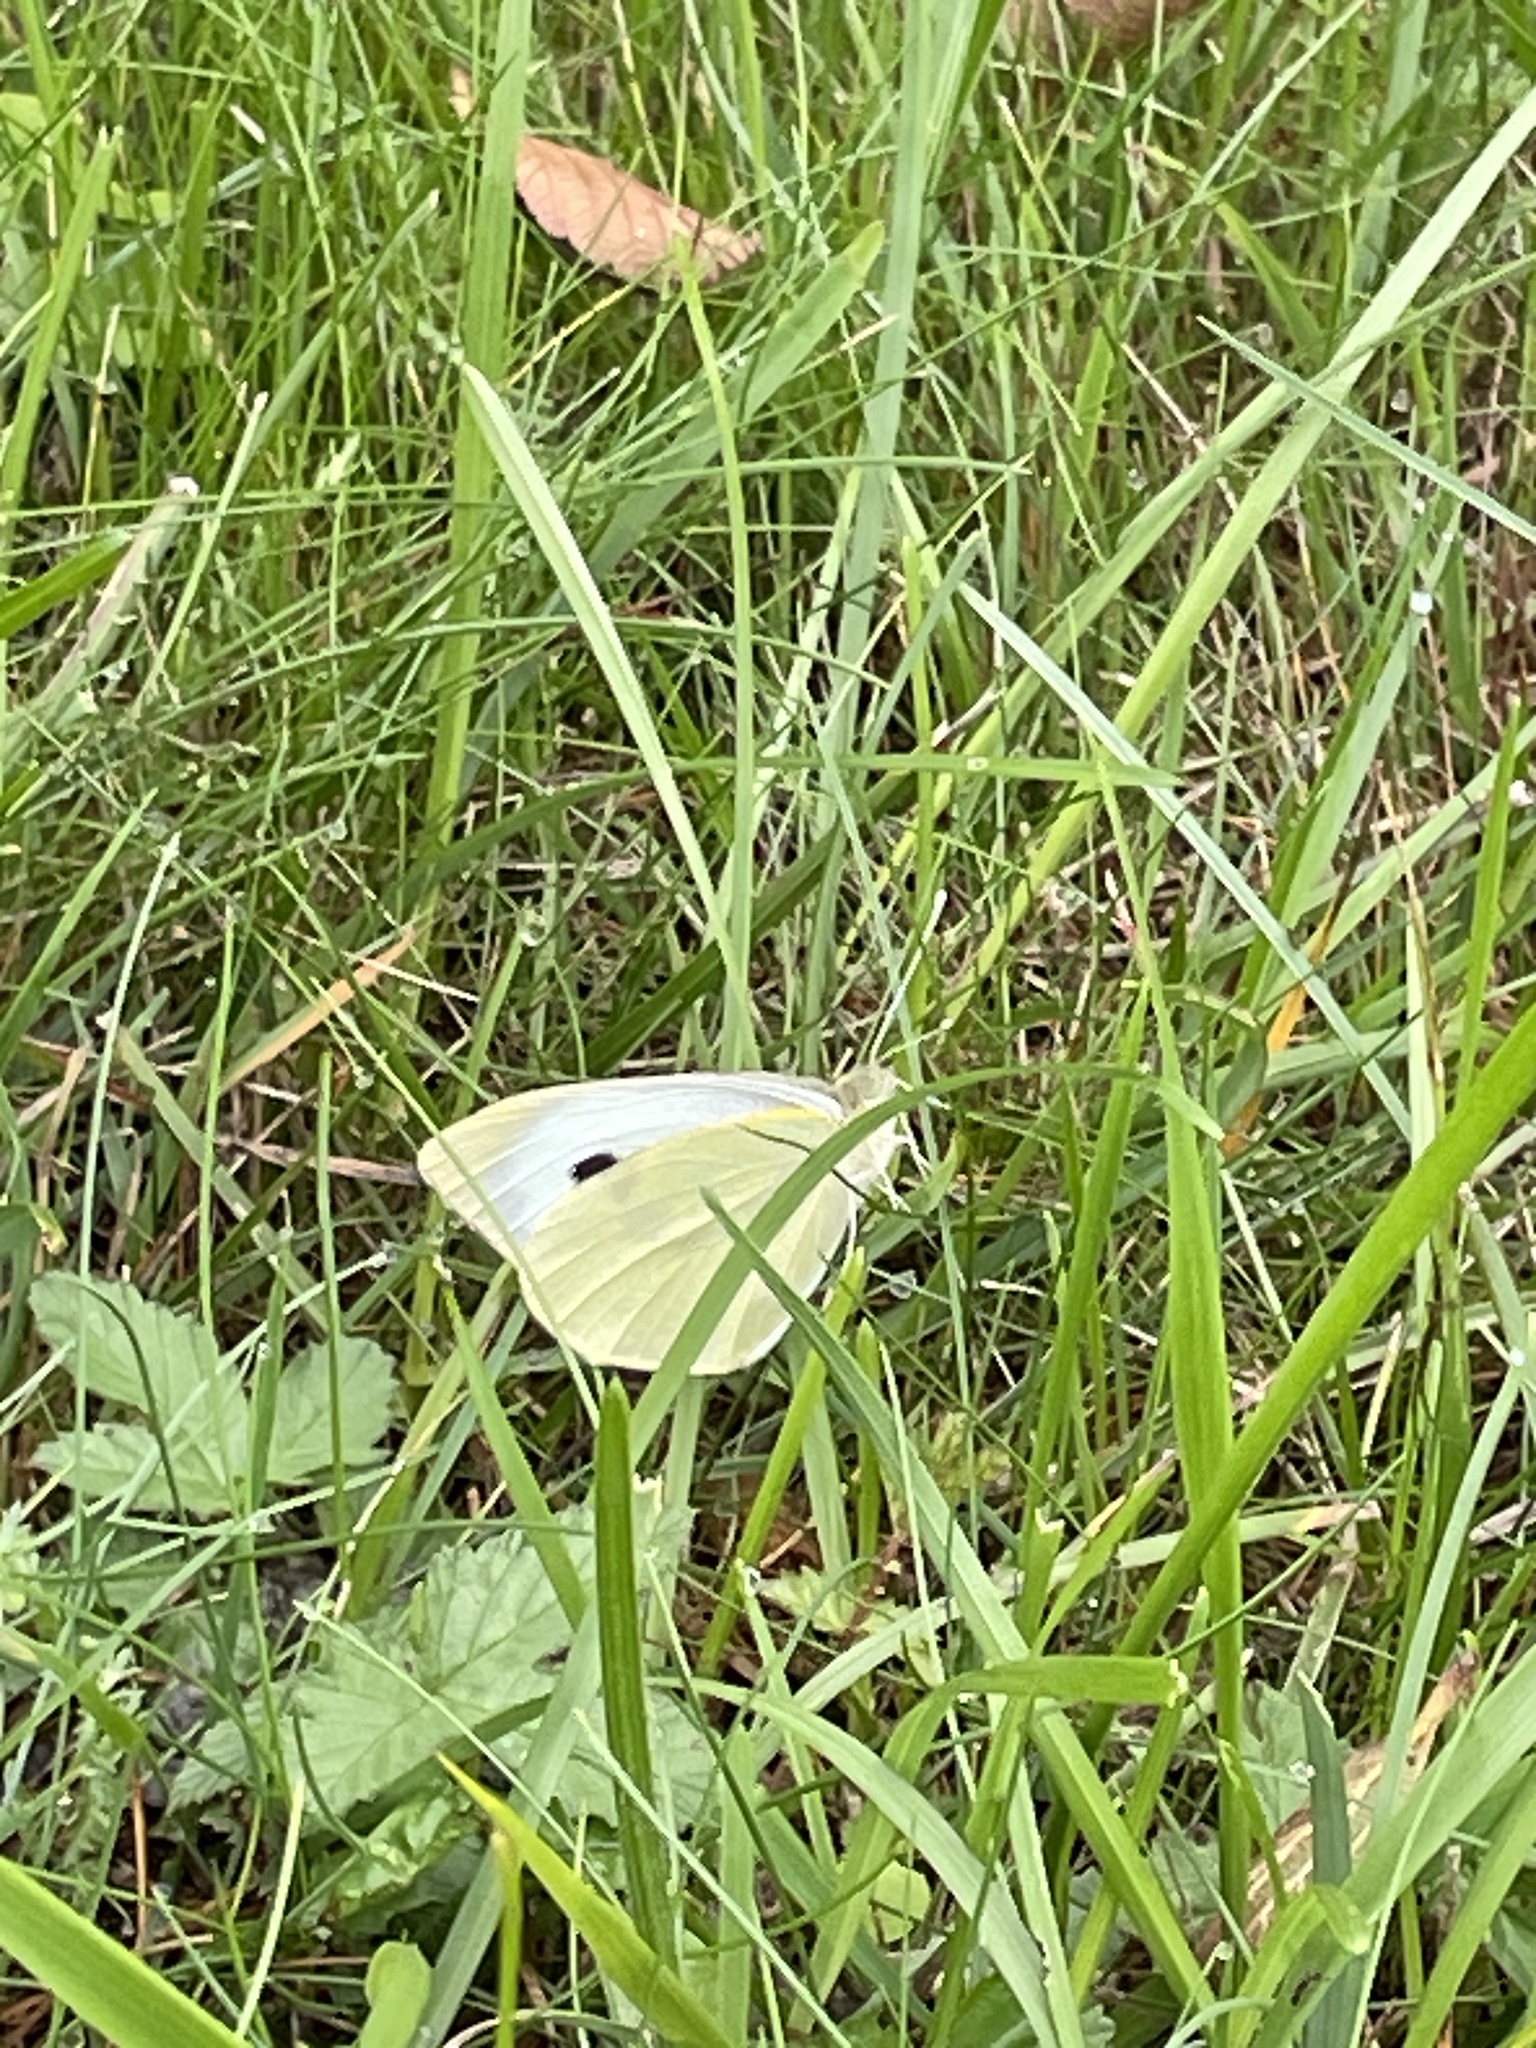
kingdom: Animalia
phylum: Arthropoda
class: Insecta
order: Lepidoptera
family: Pieridae
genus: Pieris
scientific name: Pieris brassicae
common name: Large white
